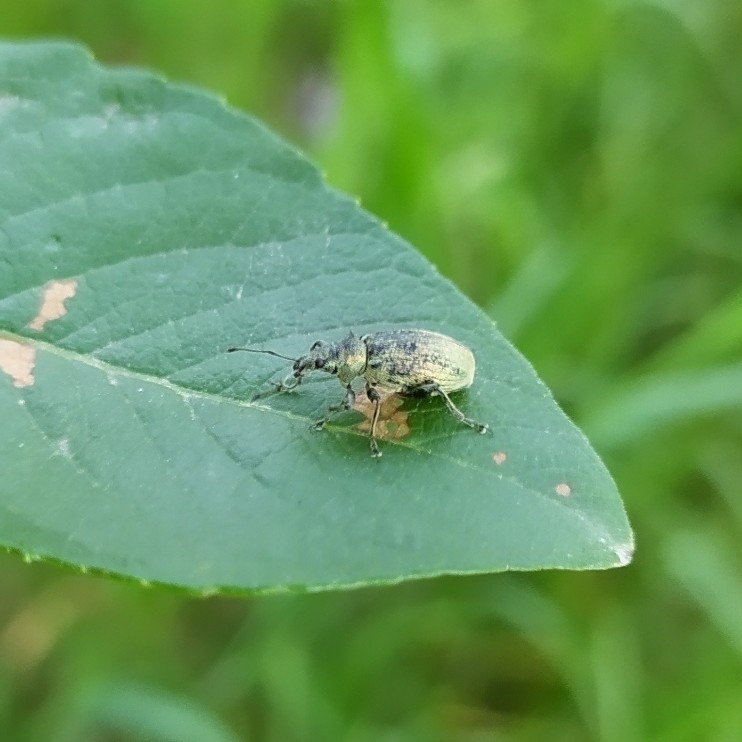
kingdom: Animalia
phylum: Arthropoda
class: Insecta
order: Coleoptera
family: Curculionidae
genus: Phyllobius
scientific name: Phyllobius pomaceus
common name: Green nettle weevil
